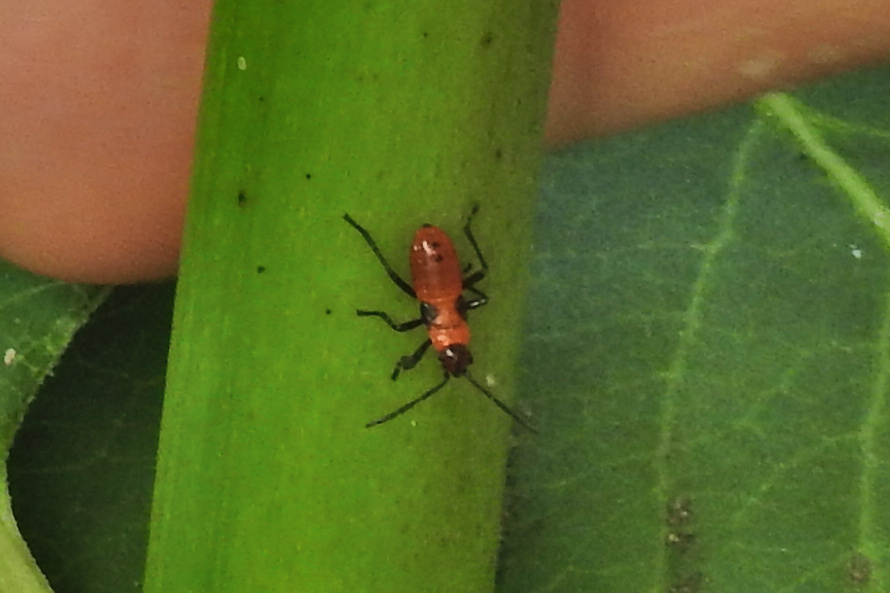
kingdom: Animalia
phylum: Arthropoda
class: Insecta
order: Hemiptera
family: Lygaeidae
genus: Oncopeltus
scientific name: Oncopeltus fasciatus
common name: Large milkweed bug
